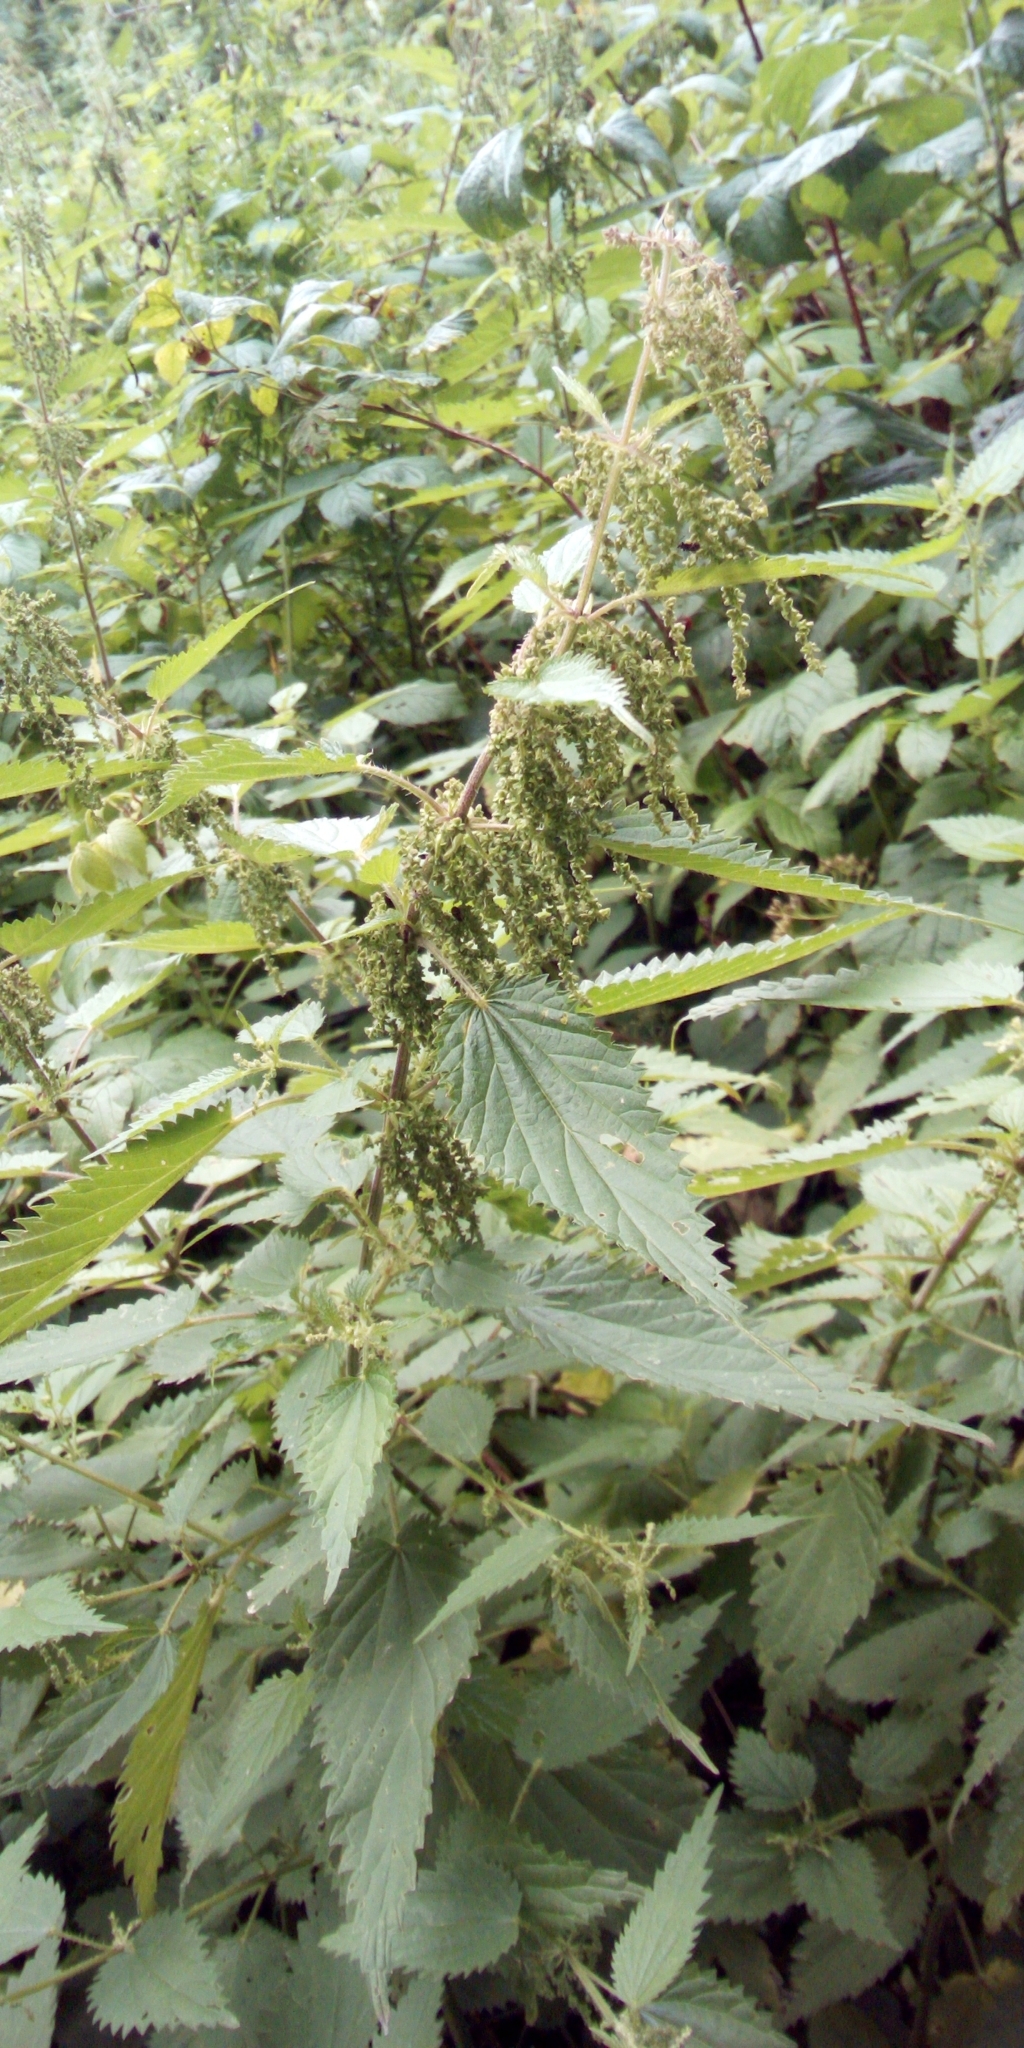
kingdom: Plantae
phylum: Tracheophyta
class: Magnoliopsida
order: Rosales
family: Urticaceae
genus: Urtica
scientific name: Urtica dioica
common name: Common nettle
